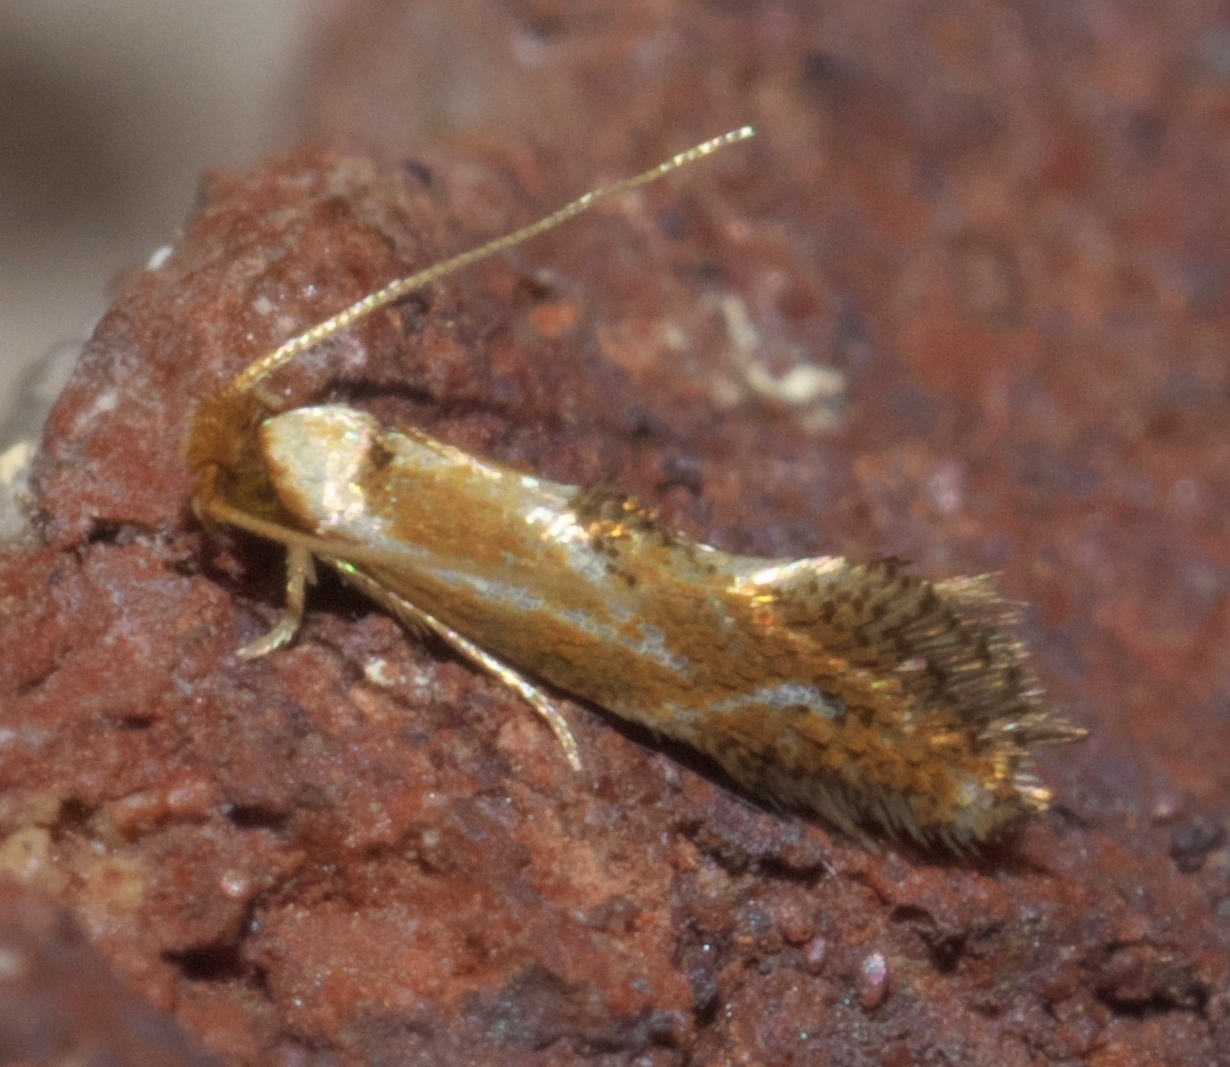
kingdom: Animalia
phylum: Arthropoda
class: Insecta
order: Lepidoptera
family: Lyonetiidae
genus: Philonome
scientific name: Philonome clemensella
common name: Clemen's philonome moth
